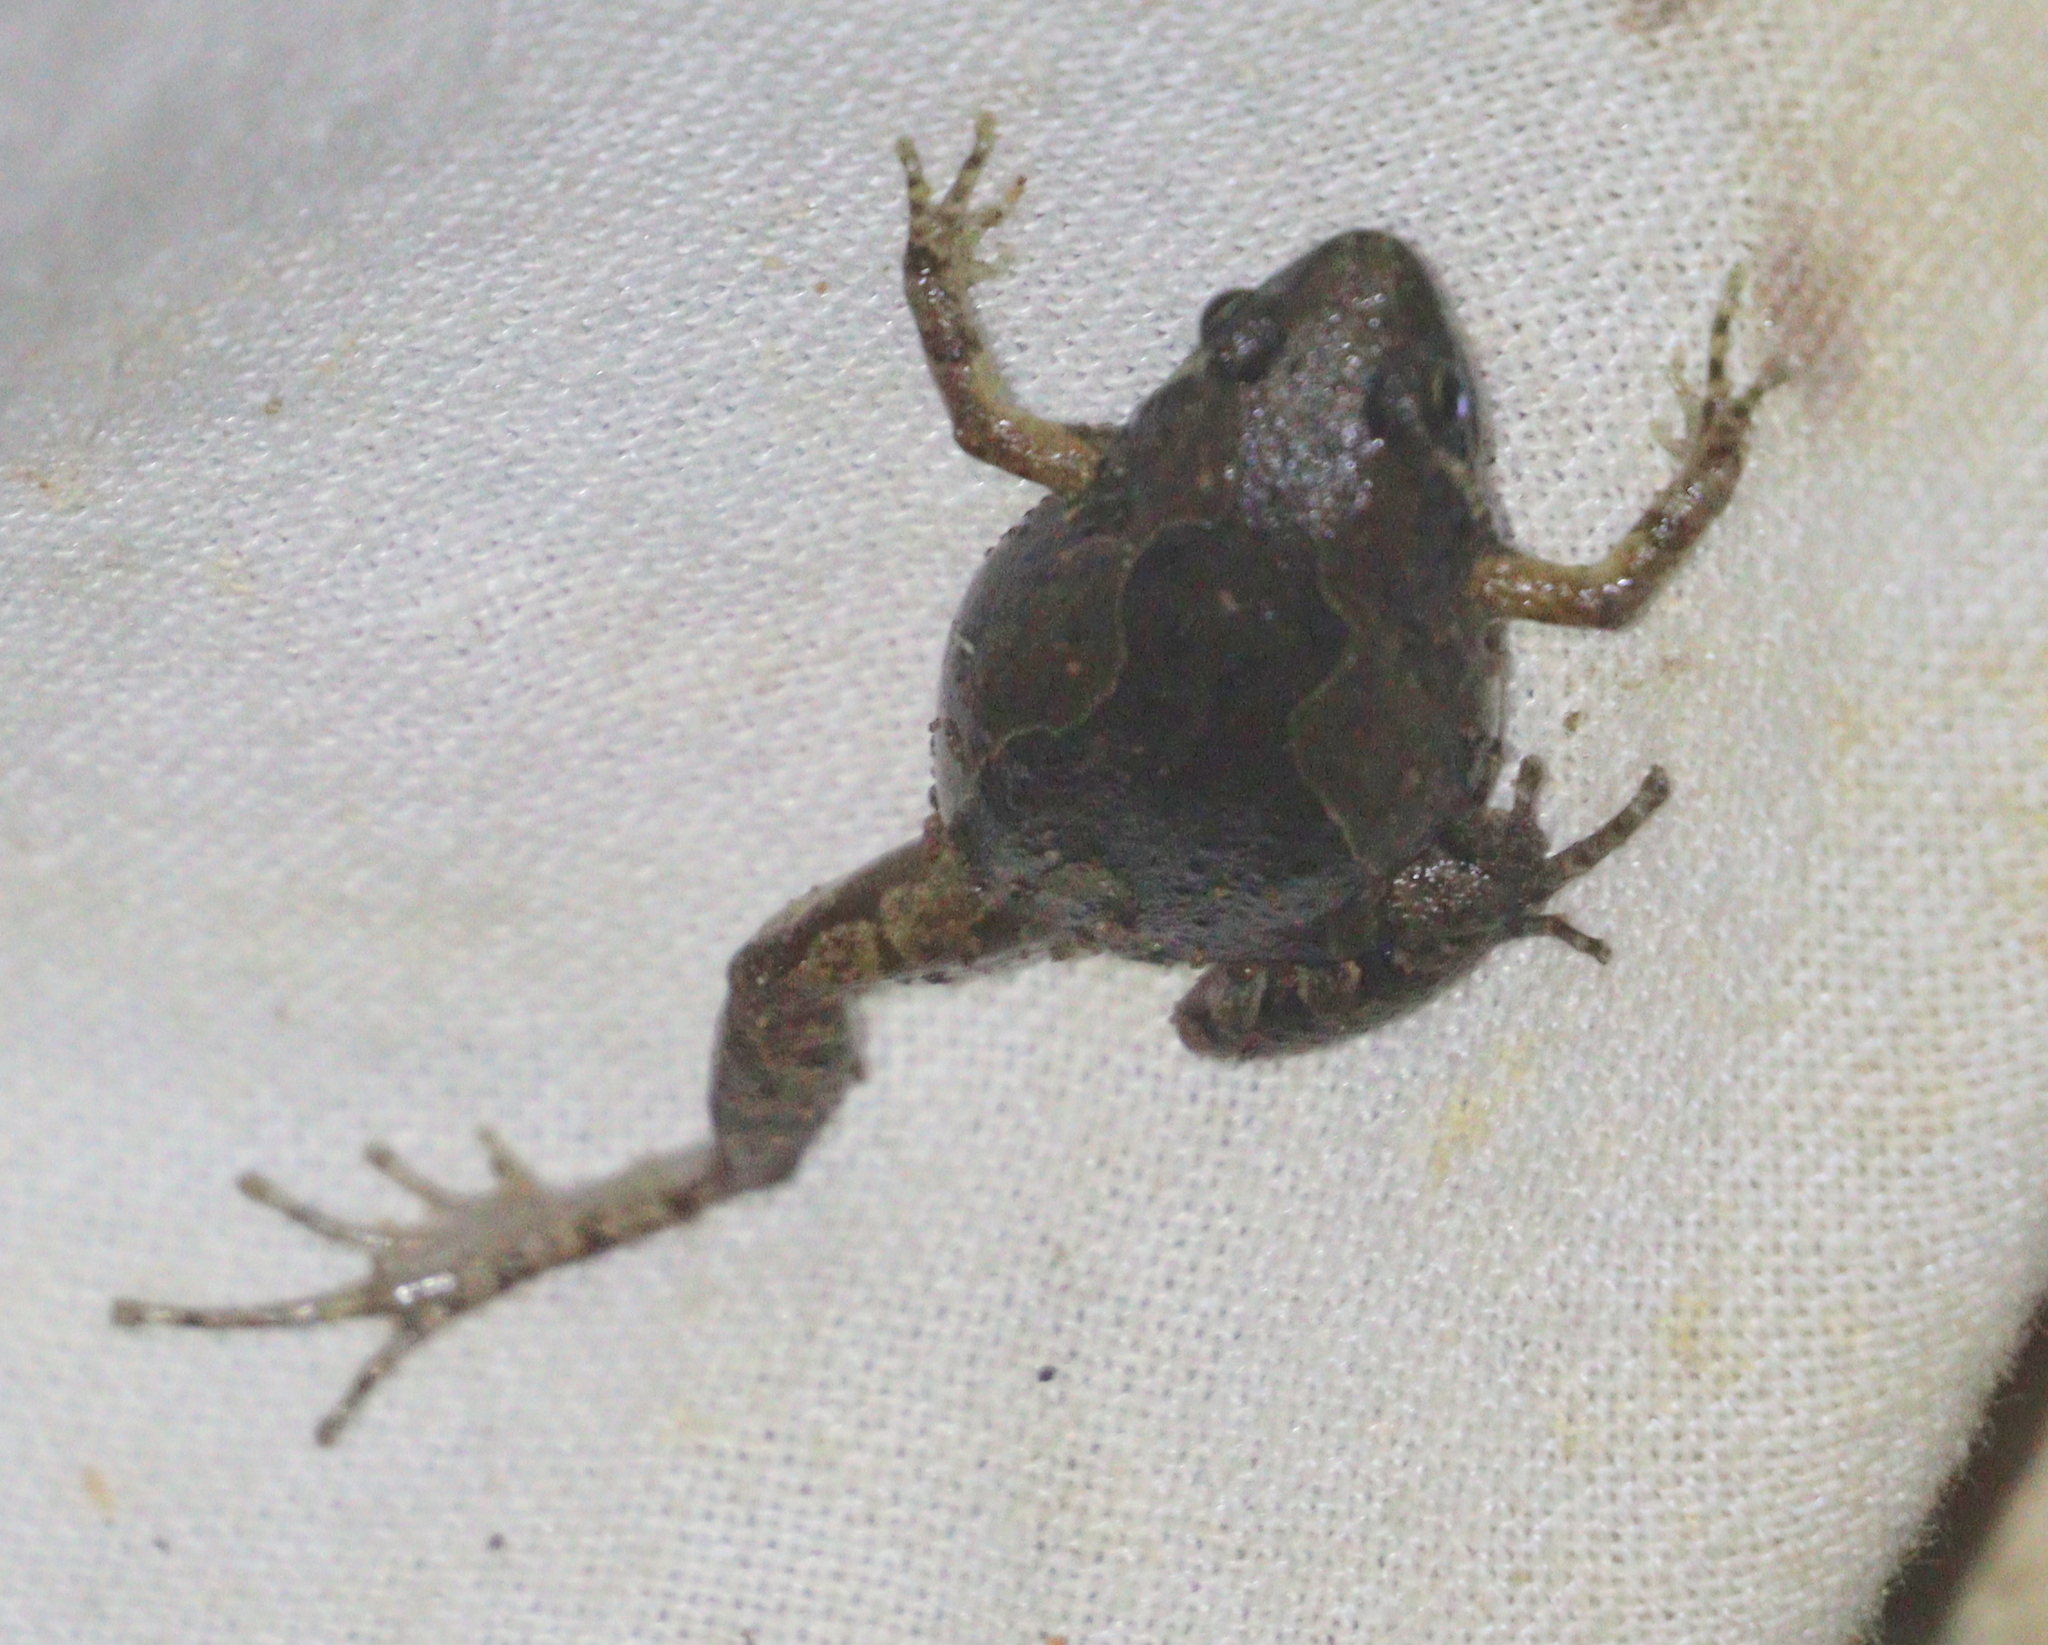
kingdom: Animalia
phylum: Chordata
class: Amphibia
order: Anura
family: Microhylidae
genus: Microhyla
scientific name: Microhyla butleri
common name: Butler’s rice frog,painted chorus frog,tubercled pygmy frog
